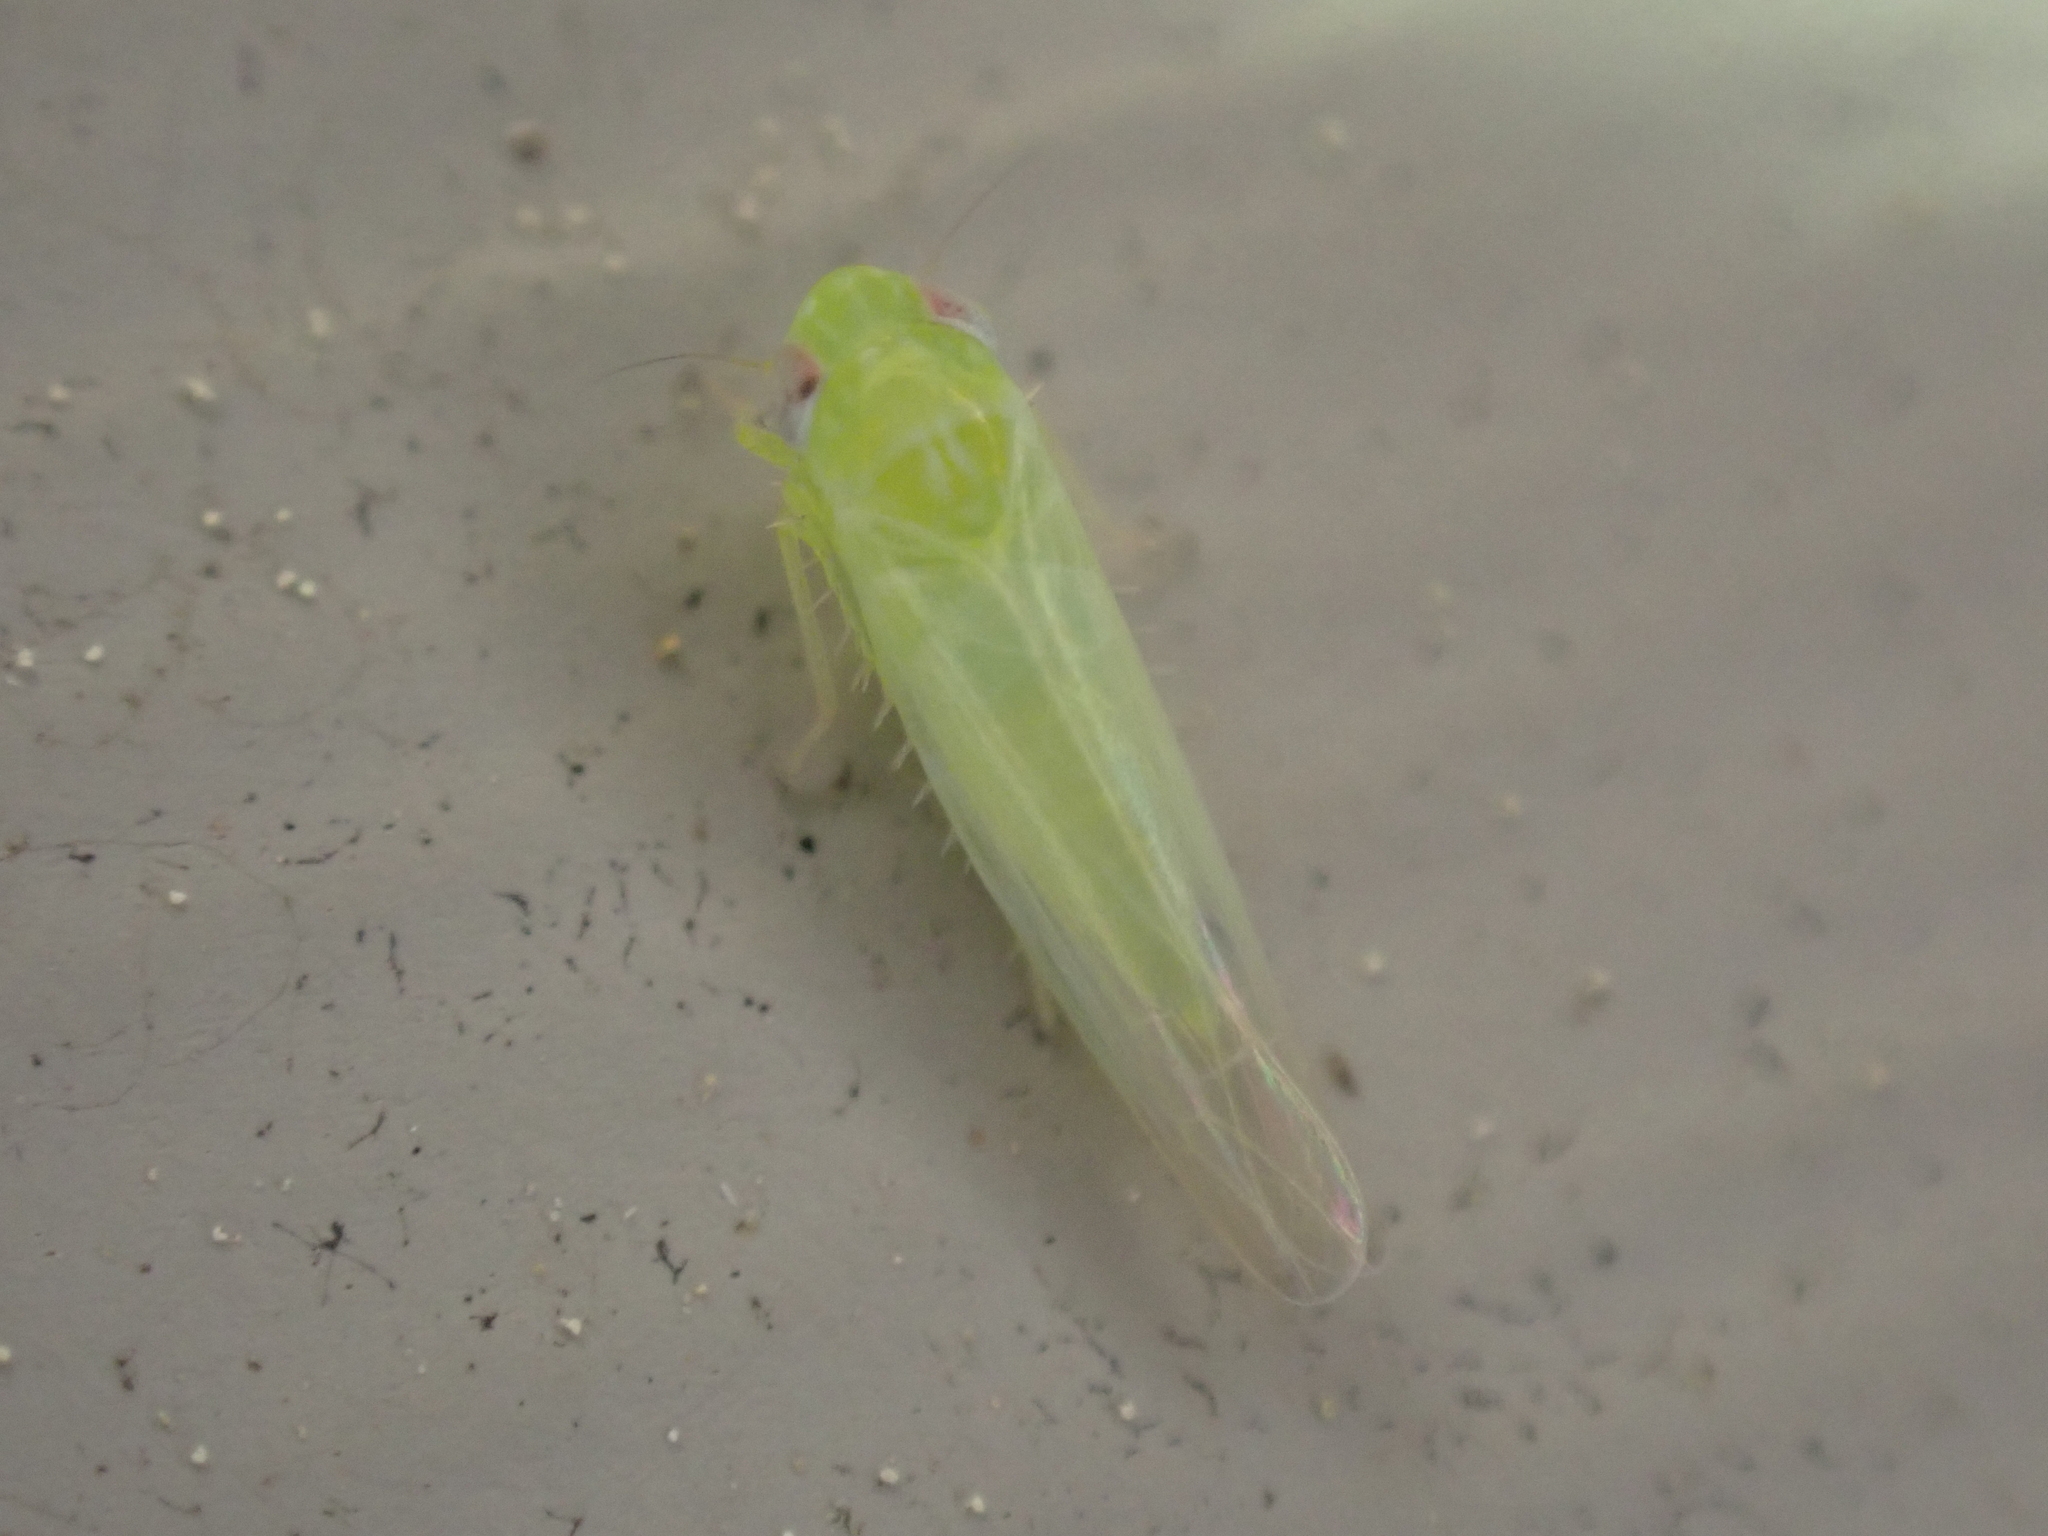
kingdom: Animalia
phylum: Arthropoda
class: Insecta
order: Hemiptera
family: Cicadellidae
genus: Empoasca
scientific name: Empoasca fabae
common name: Potato leafhopper
